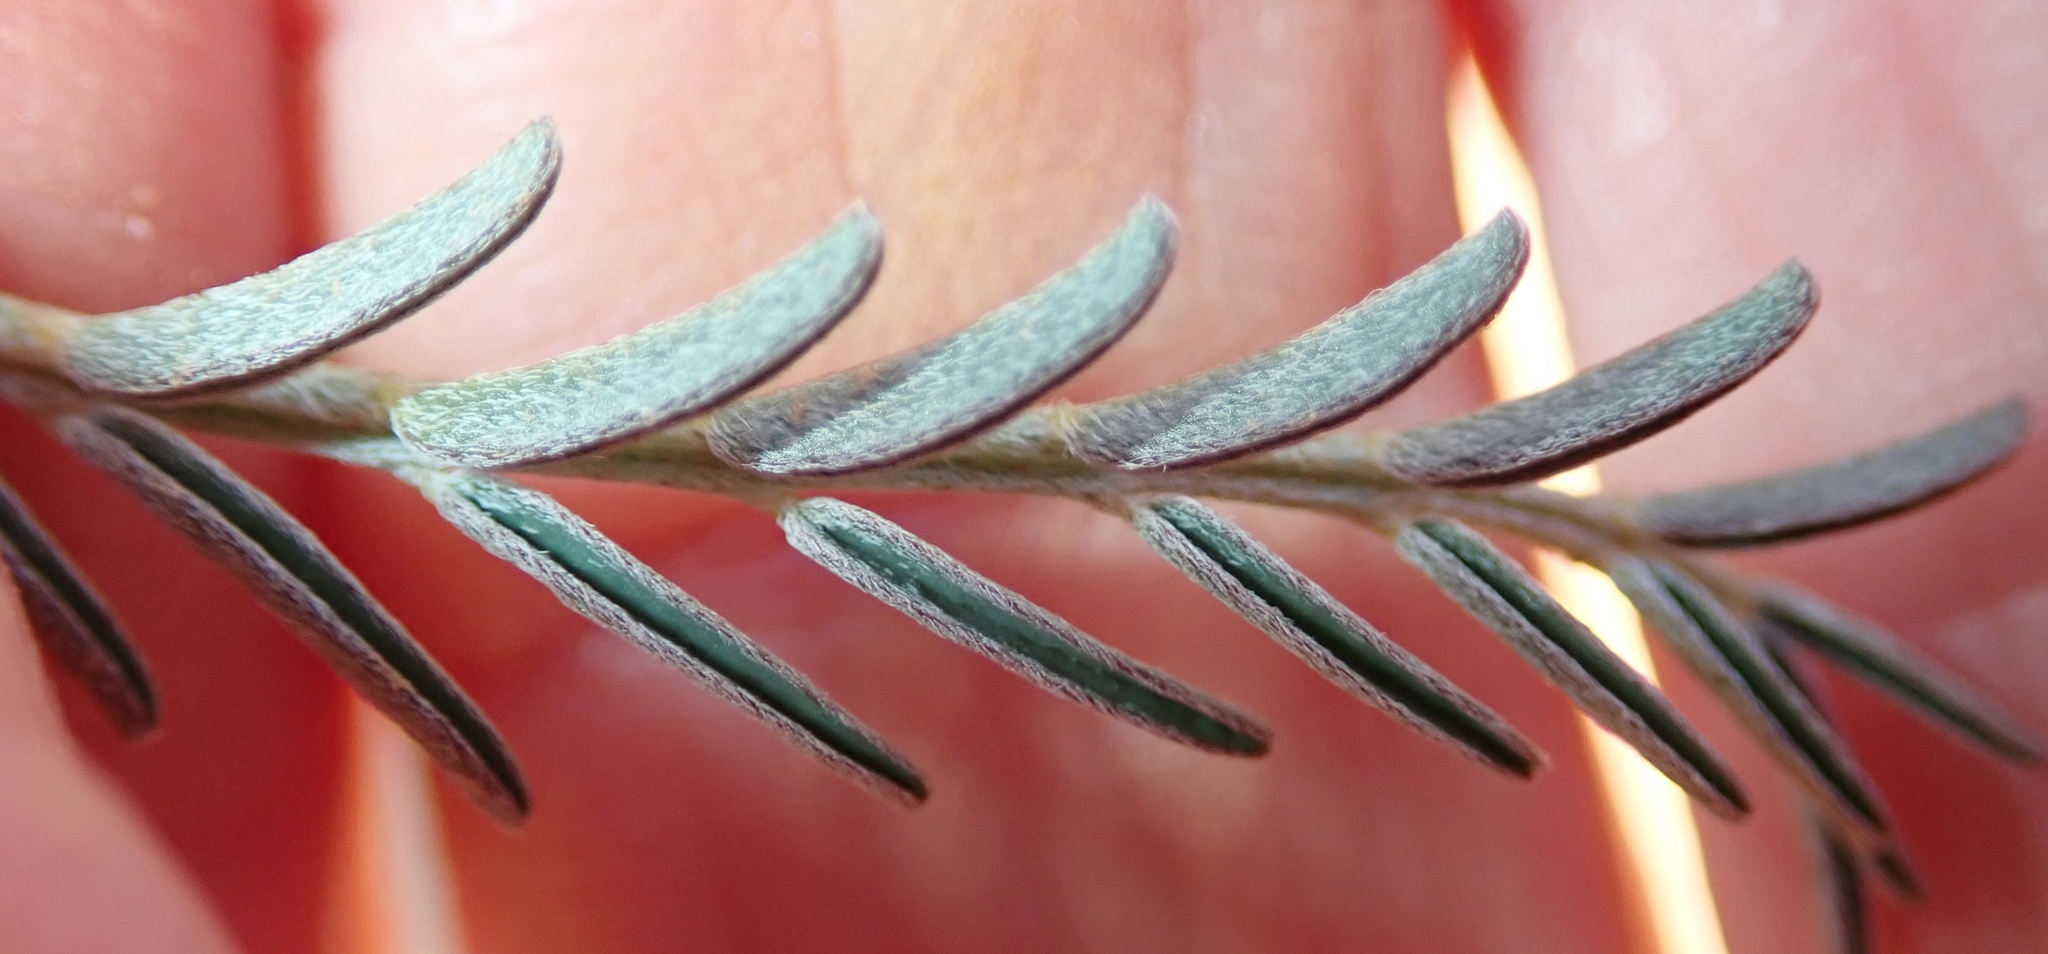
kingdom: Plantae
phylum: Tracheophyta
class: Magnoliopsida
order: Fabales
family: Fabaceae
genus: Lessertia
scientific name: Lessertia frutescens
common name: Balloon-pea
